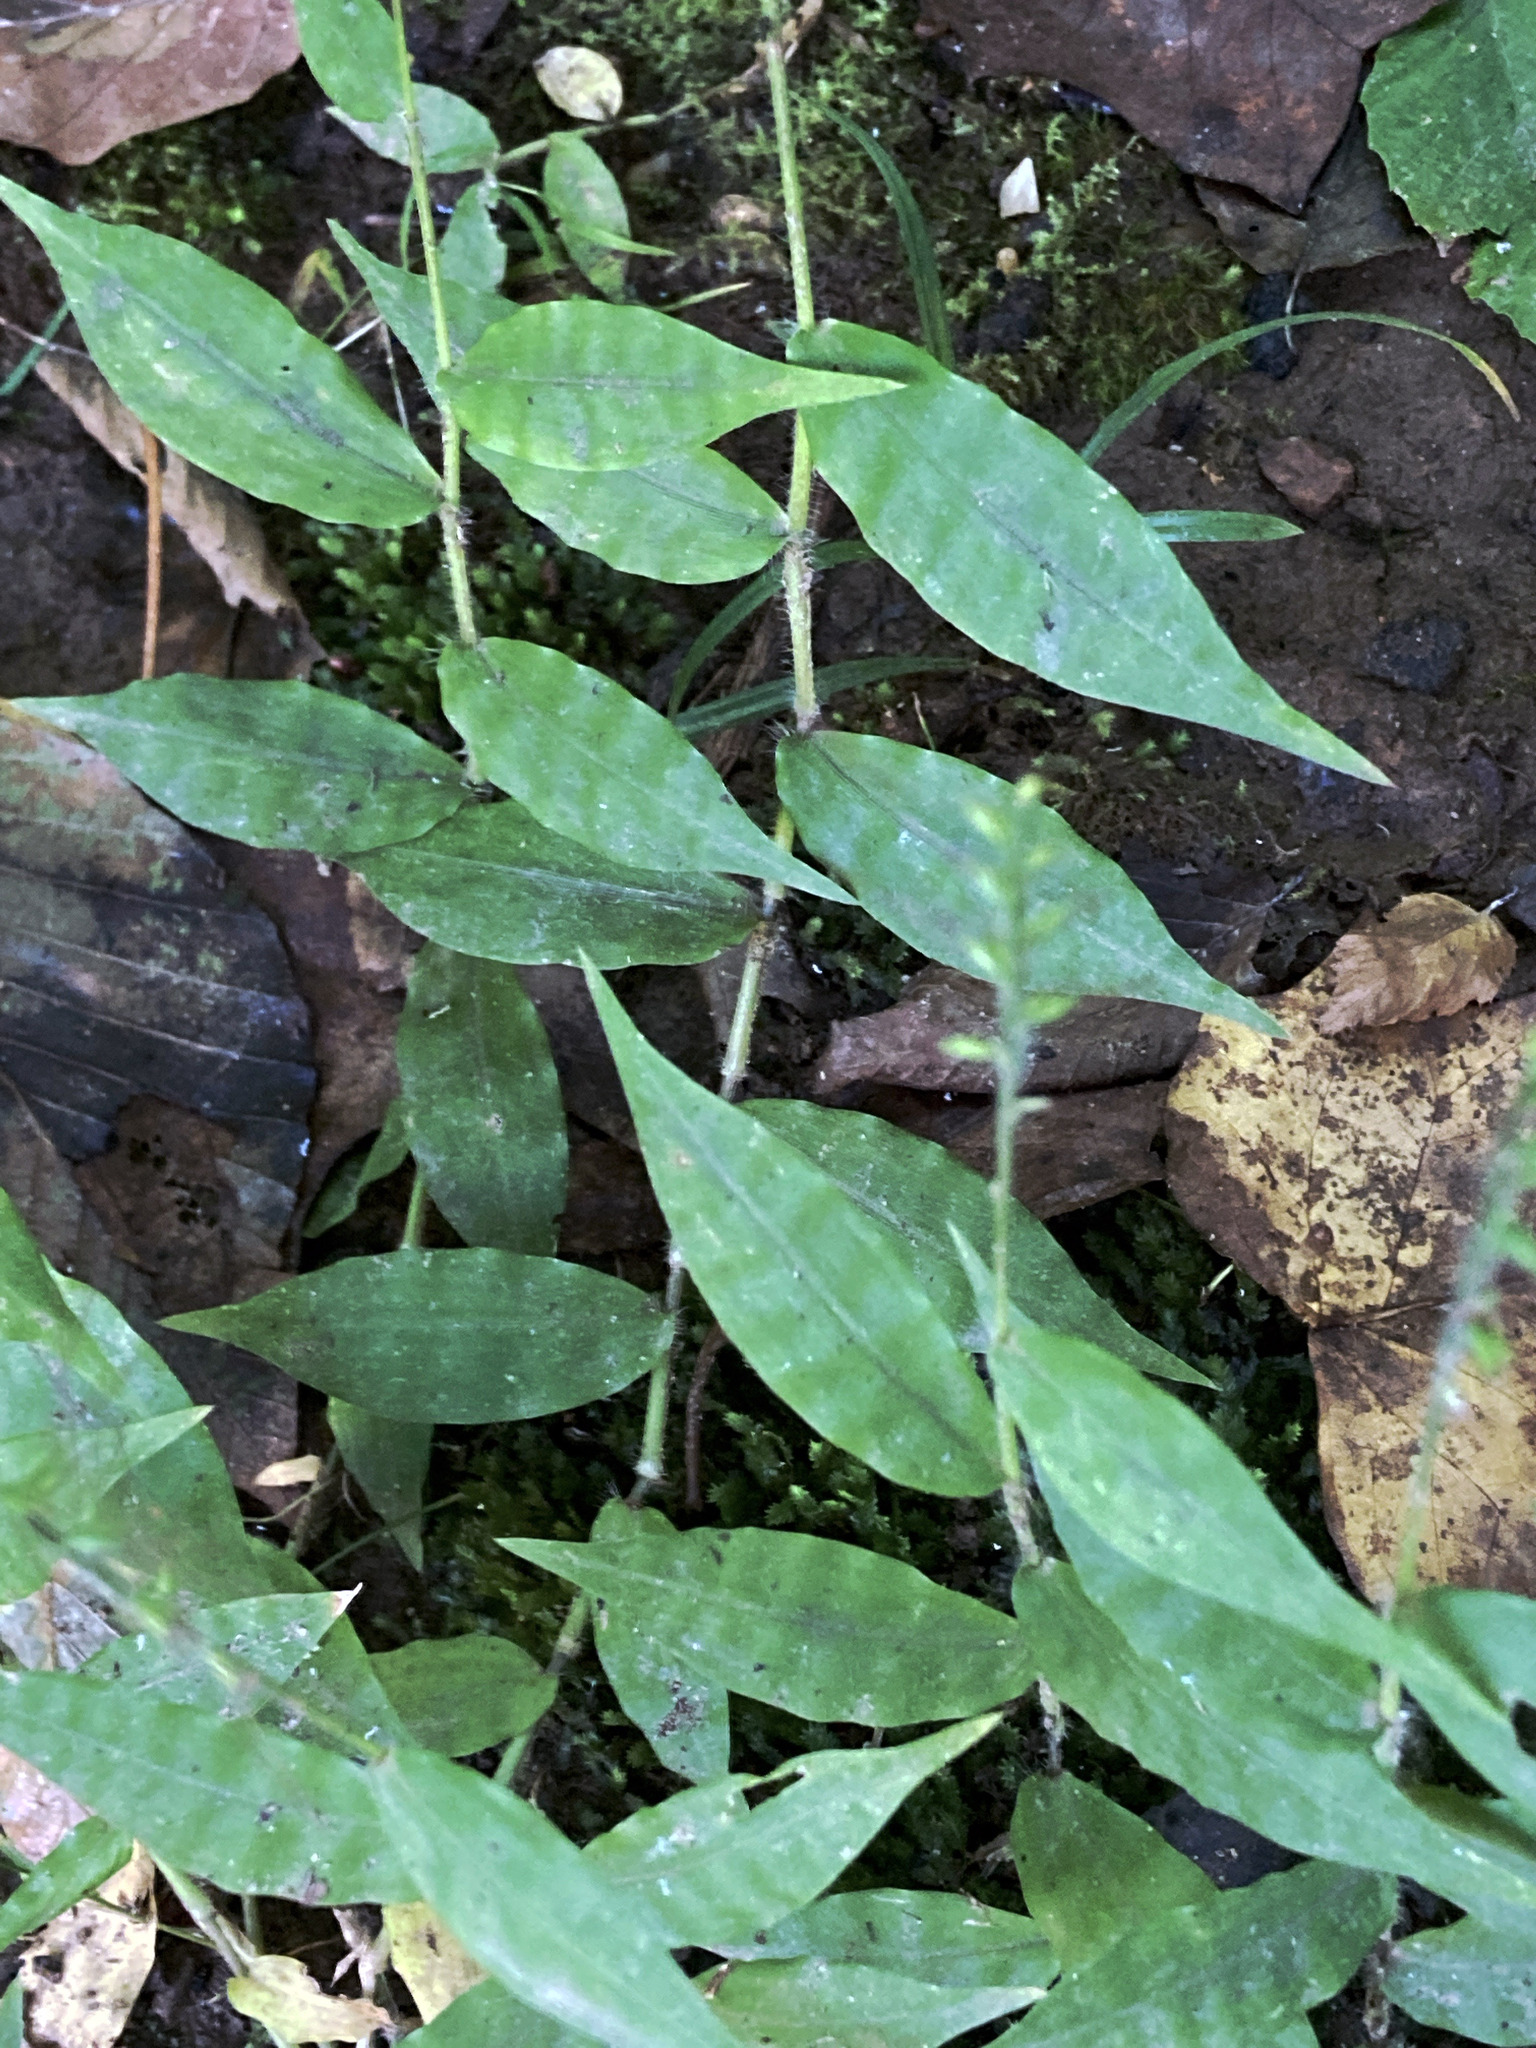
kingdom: Plantae
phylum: Tracheophyta
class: Liliopsida
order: Poales
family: Poaceae
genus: Oplismenus
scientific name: Oplismenus undulatifolius
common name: Wavyleaf basketgrass
